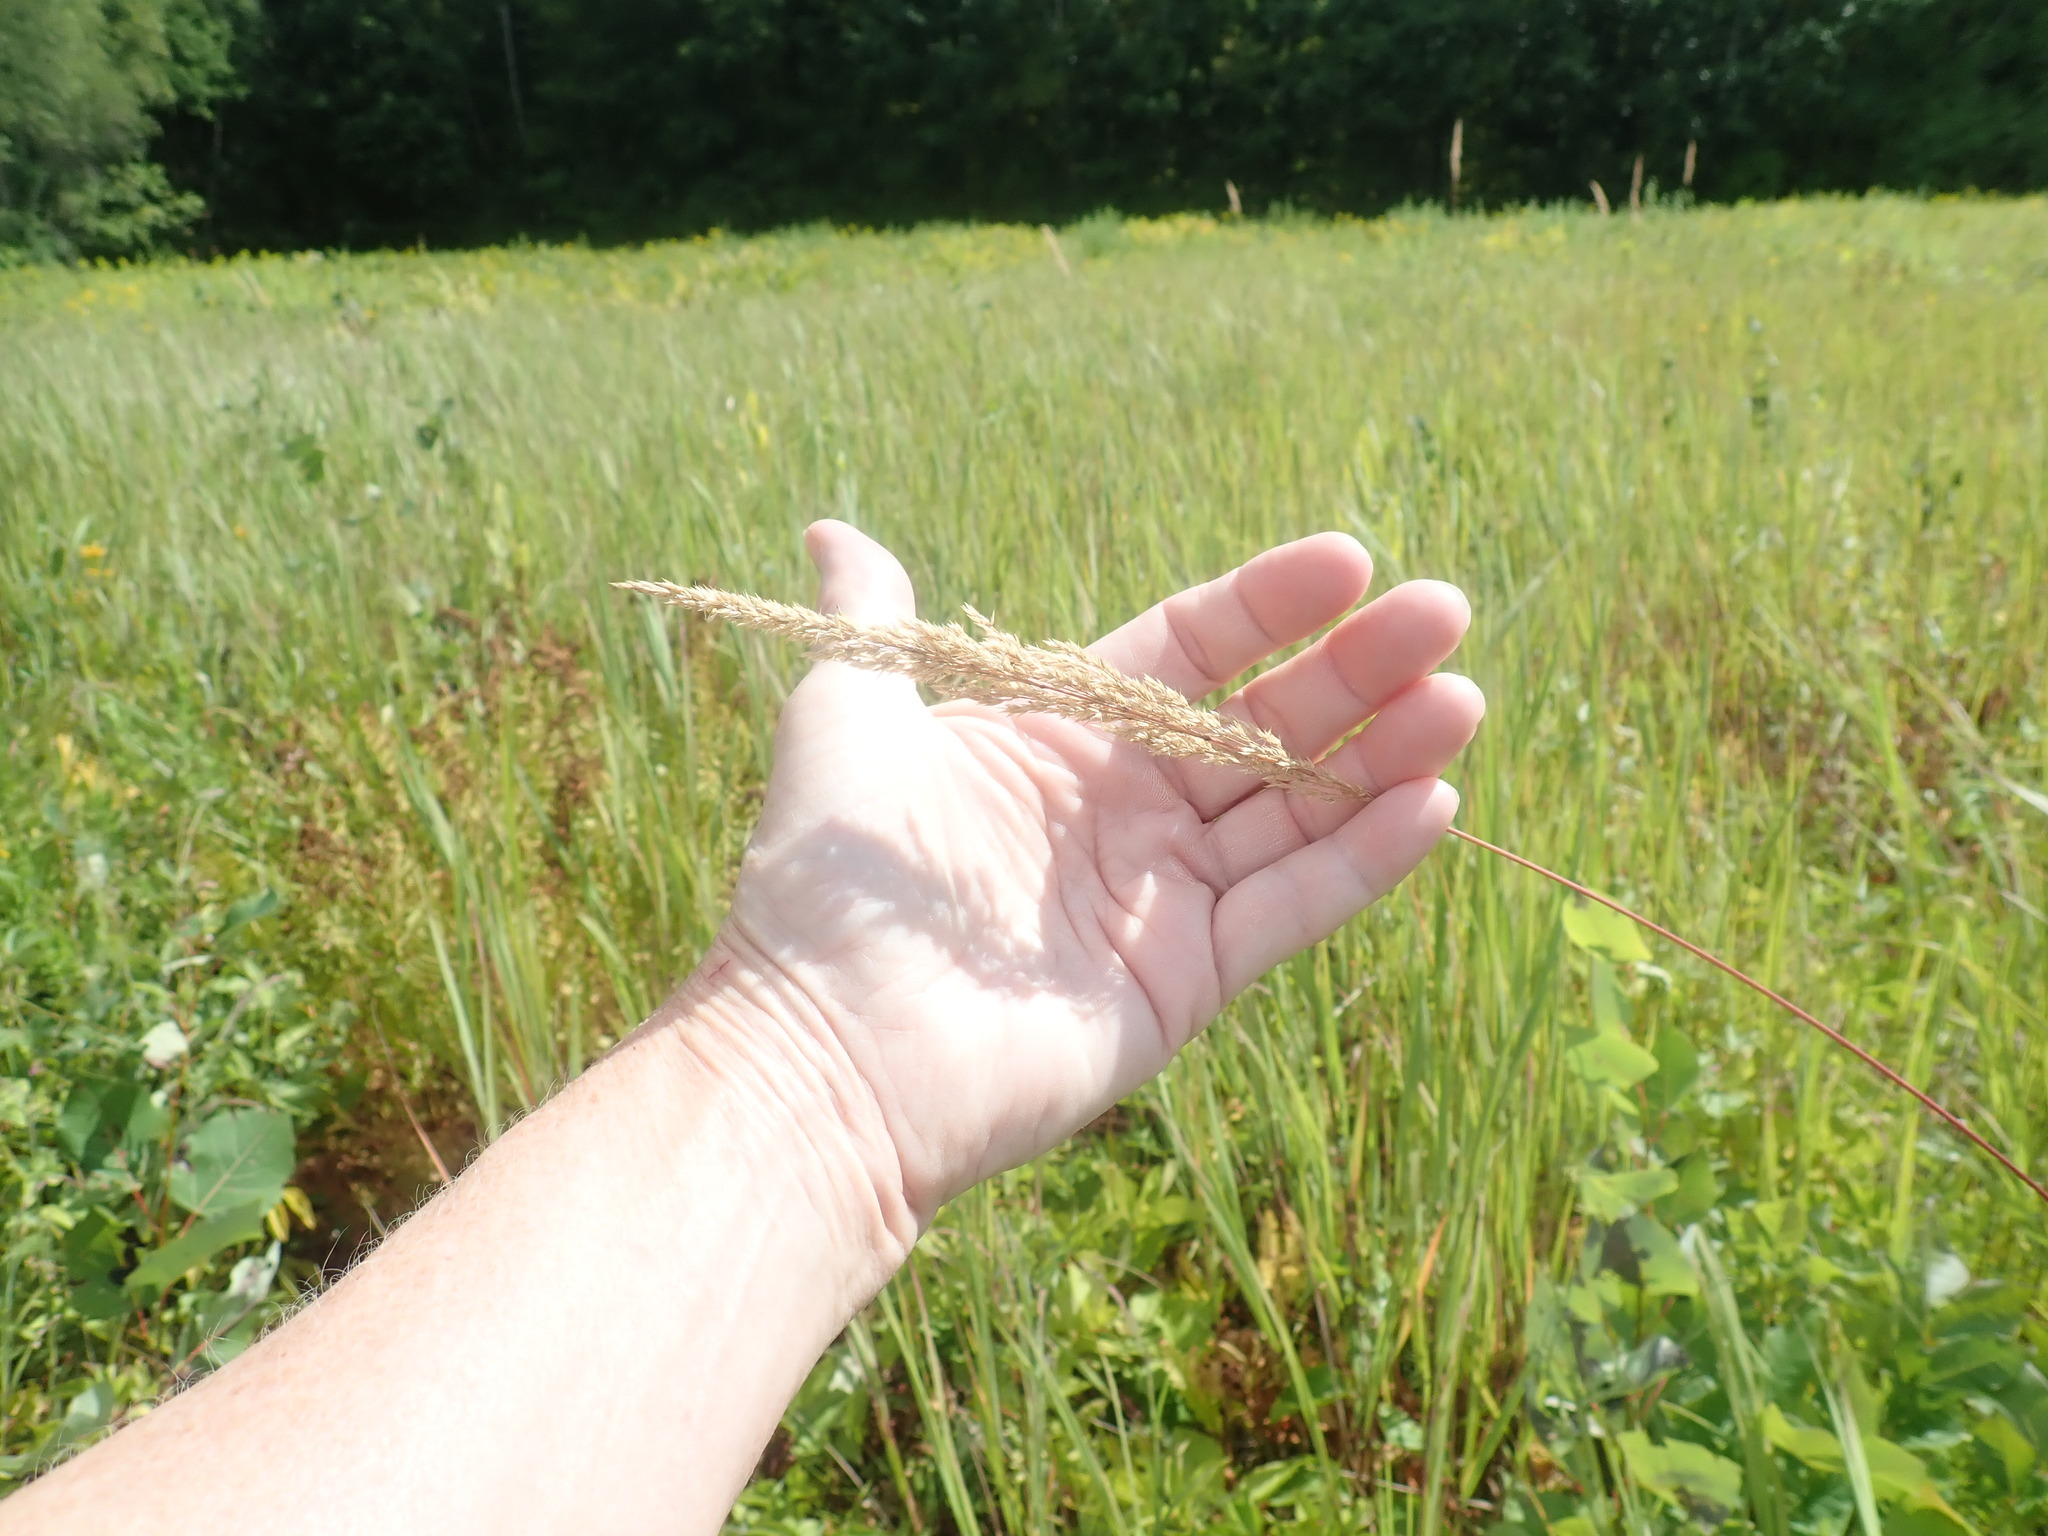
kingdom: Plantae
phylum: Tracheophyta
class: Liliopsida
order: Poales
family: Poaceae
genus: Phalaris
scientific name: Phalaris arundinacea
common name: Reed canary-grass
